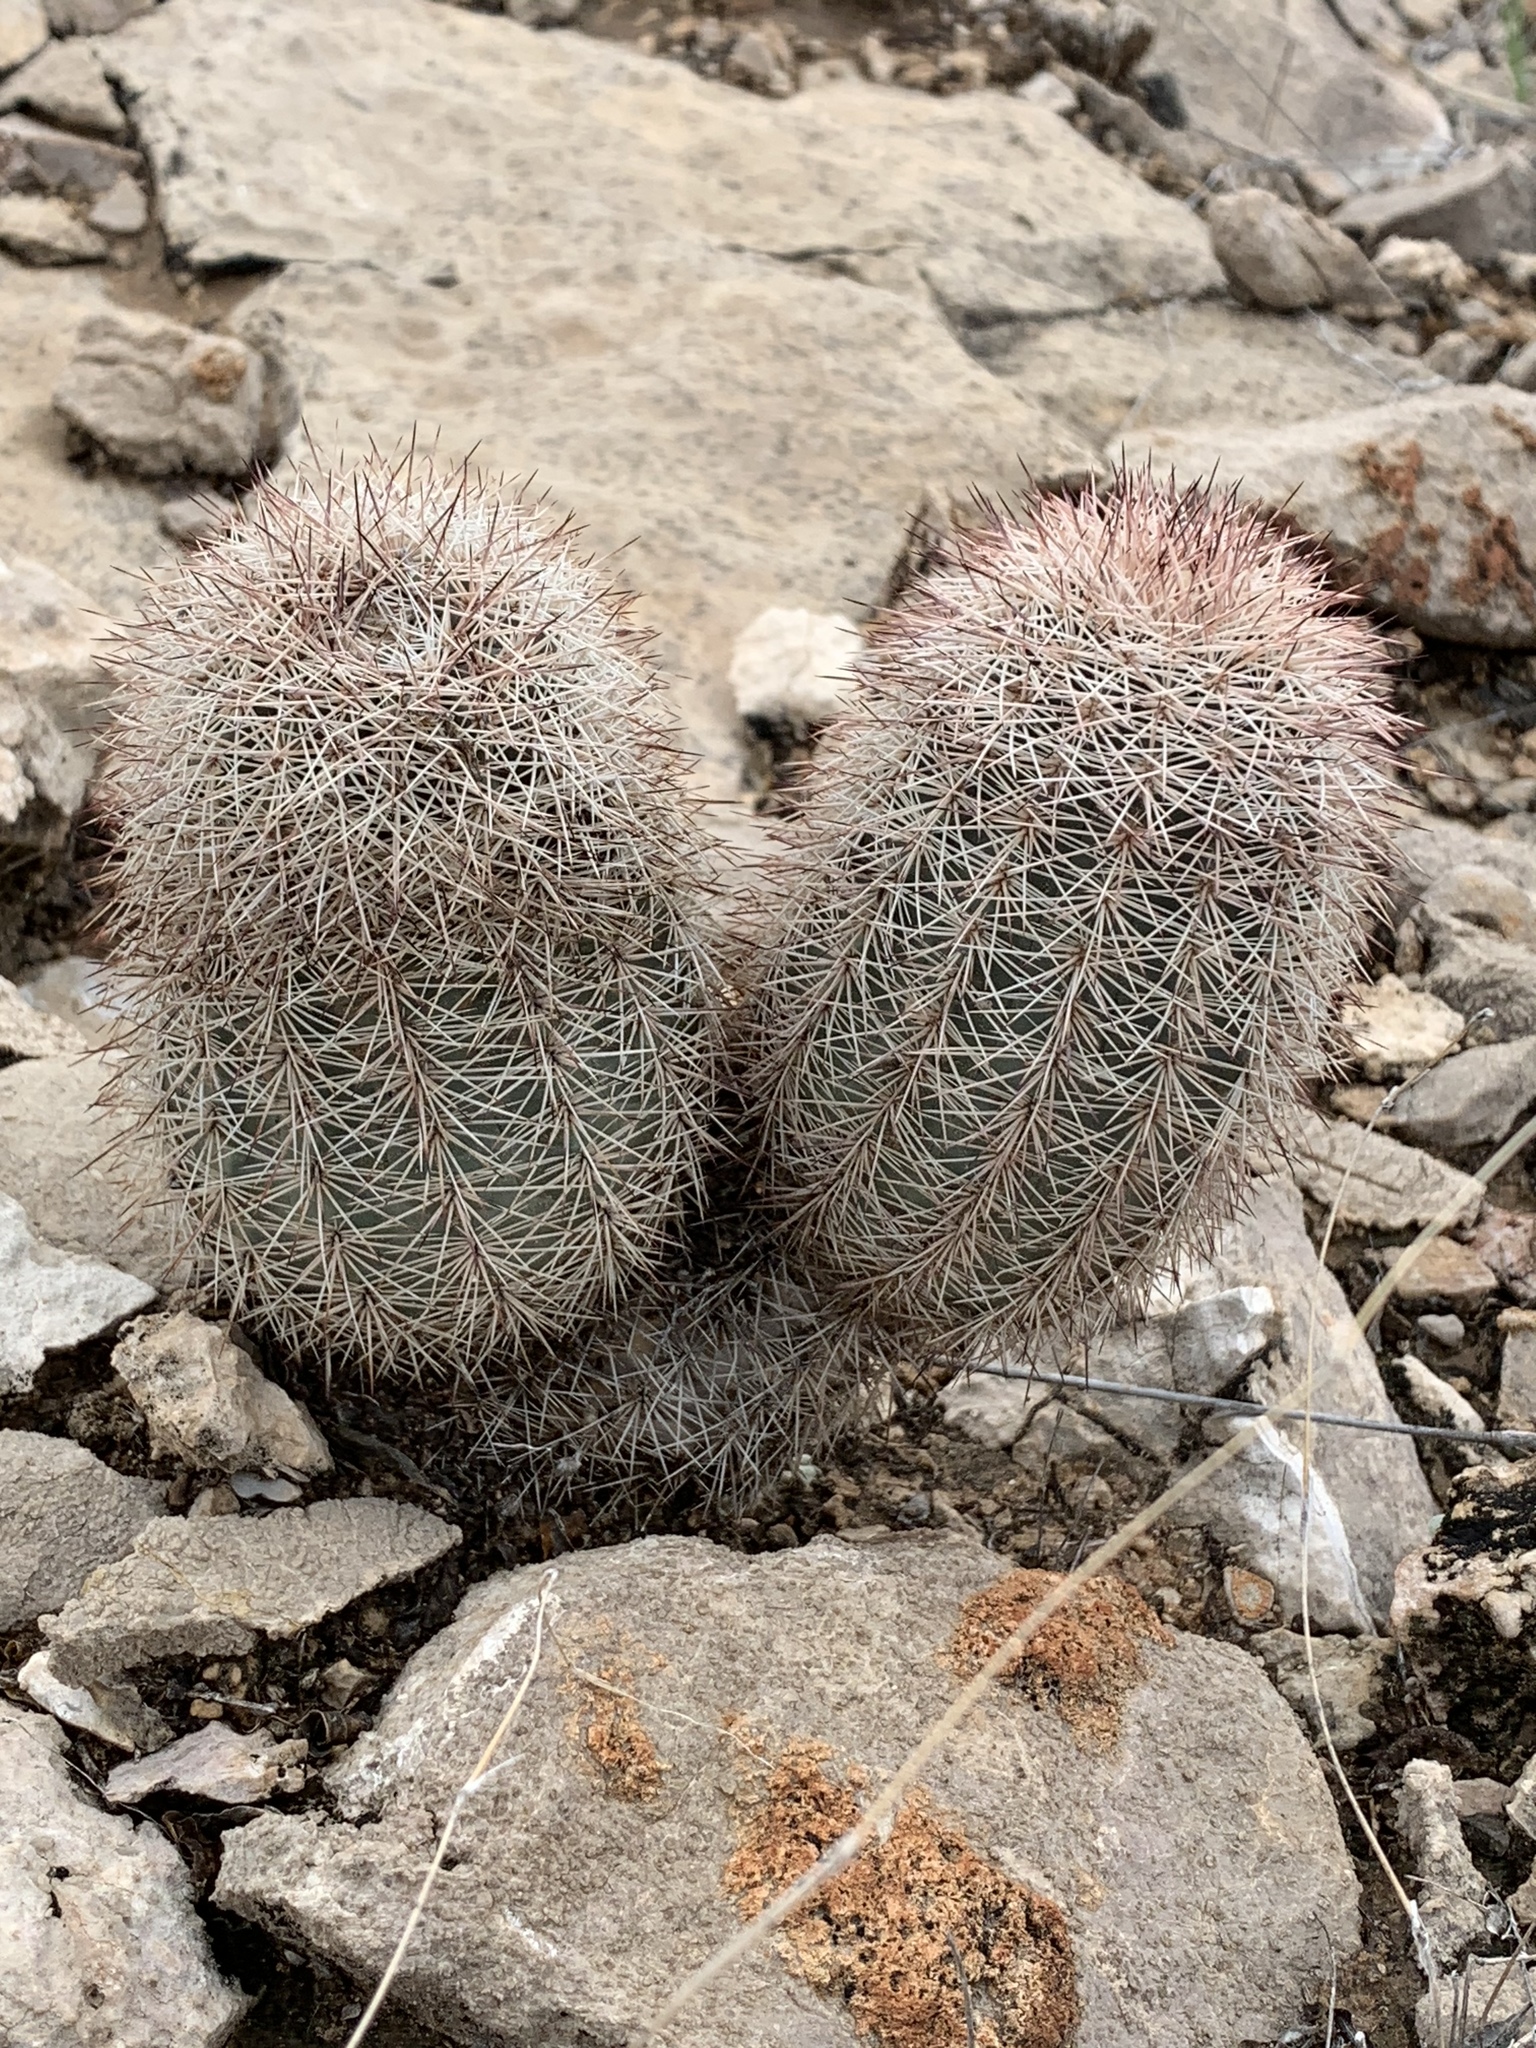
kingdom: Plantae
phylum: Tracheophyta
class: Magnoliopsida
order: Caryophyllales
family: Cactaceae
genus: Echinocereus
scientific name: Echinocereus dasyacanthus
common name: Spiny hedgehog cactus
